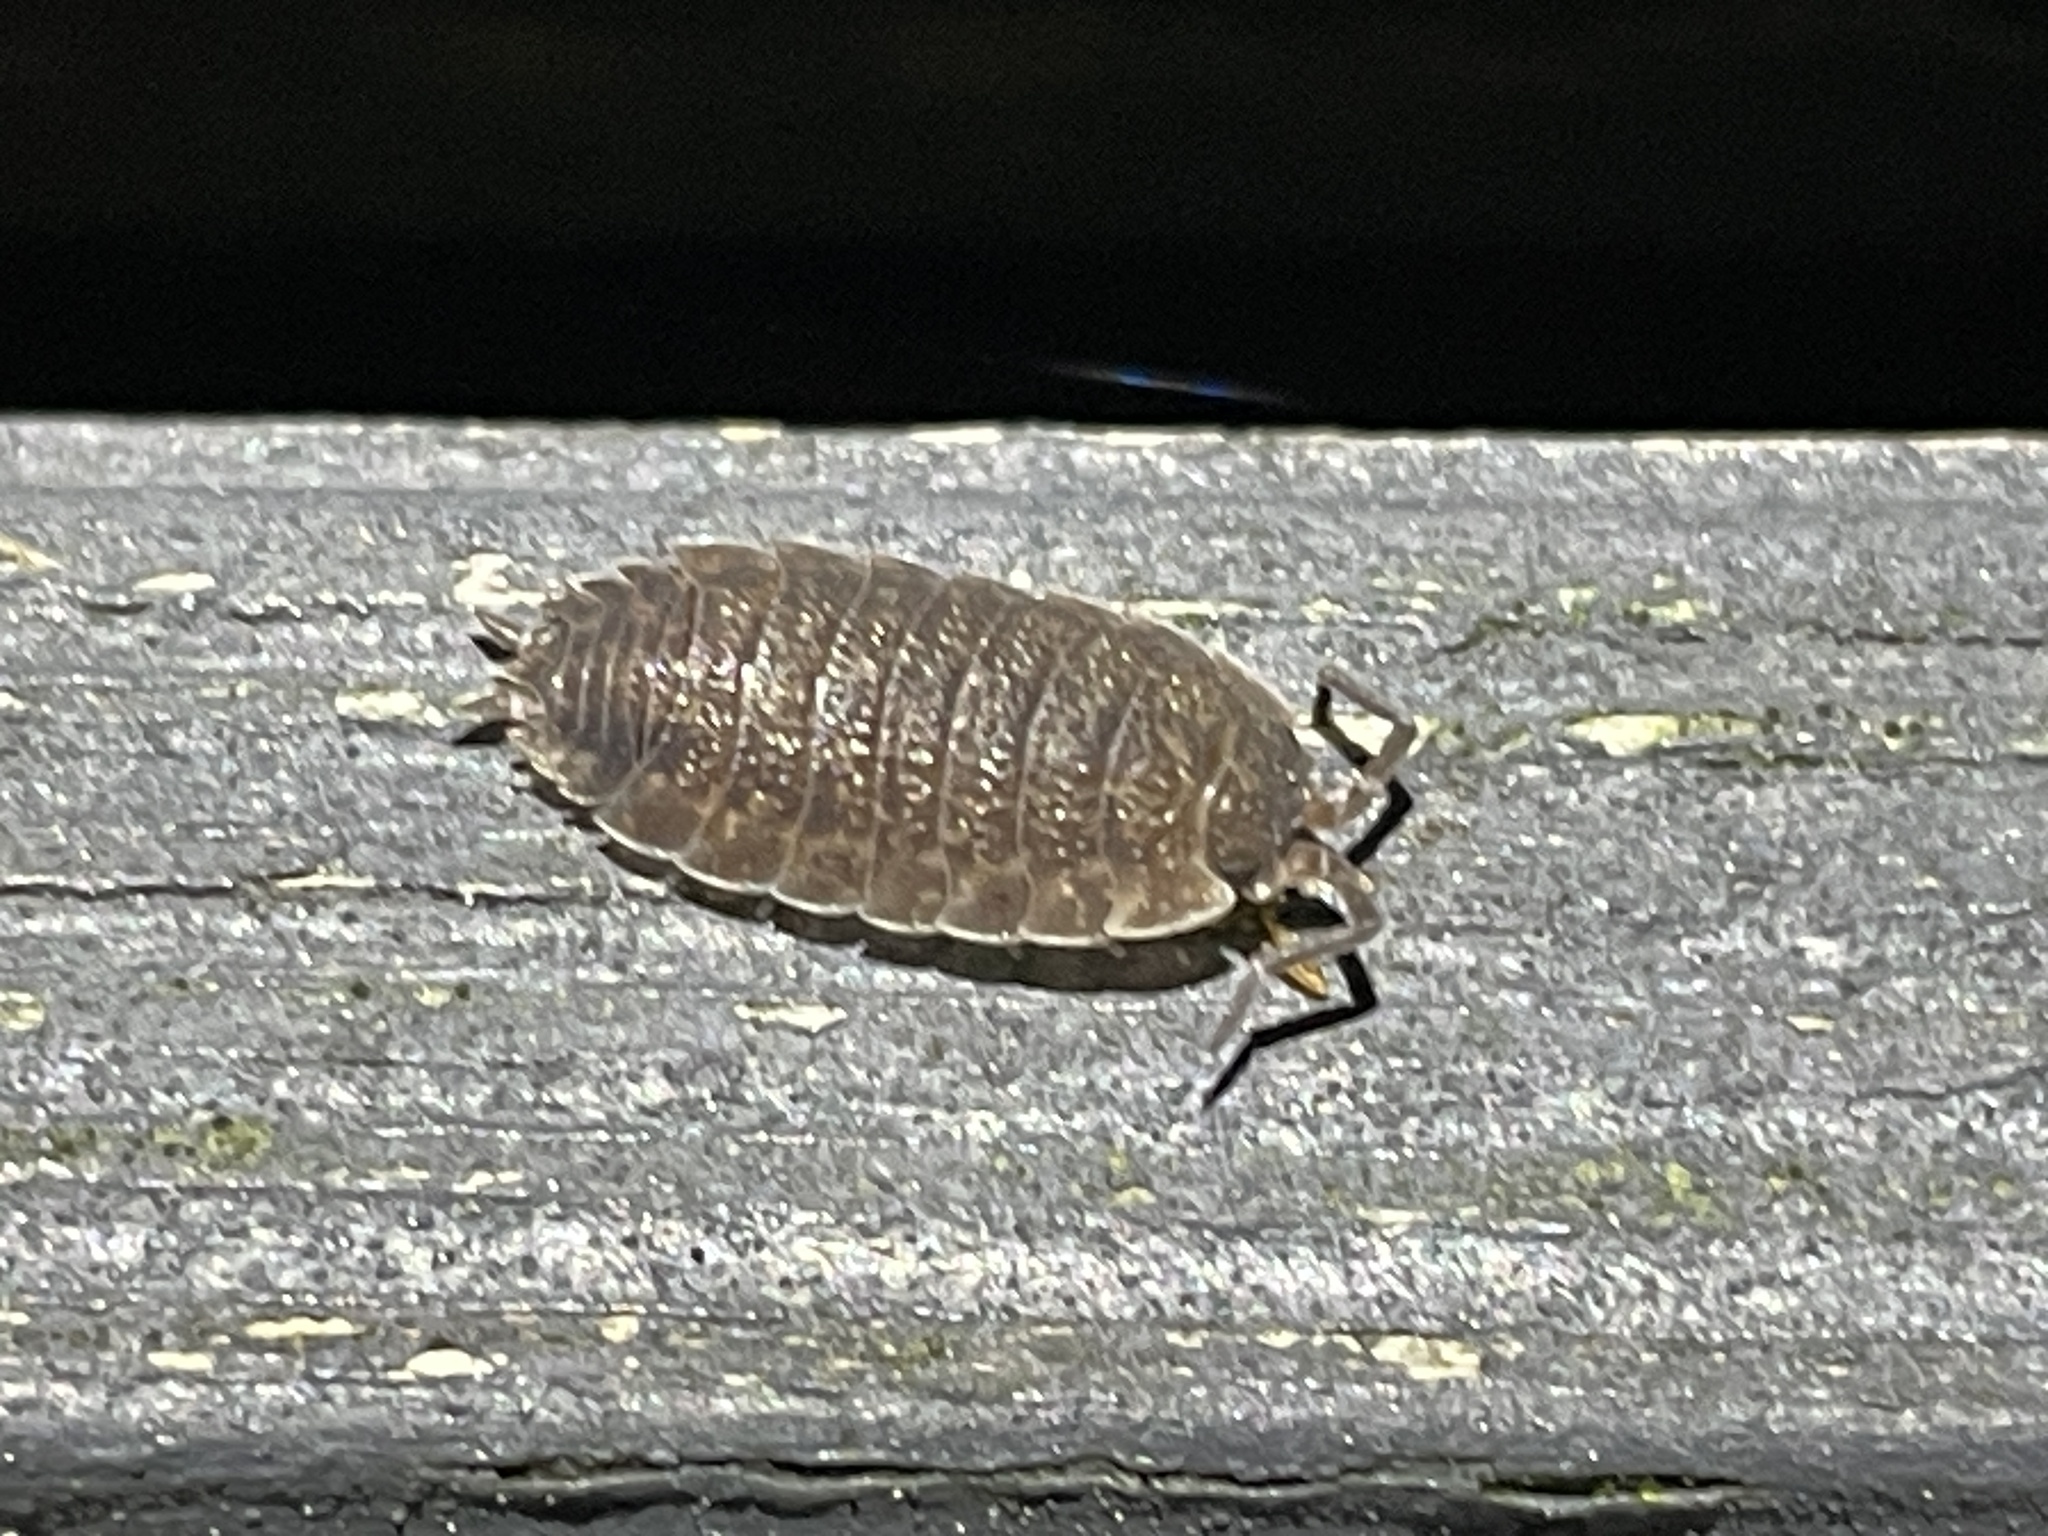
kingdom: Animalia
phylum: Arthropoda
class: Malacostraca
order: Isopoda
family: Porcellionidae
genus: Porcellio
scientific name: Porcellio scaber
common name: Common rough woodlouse
